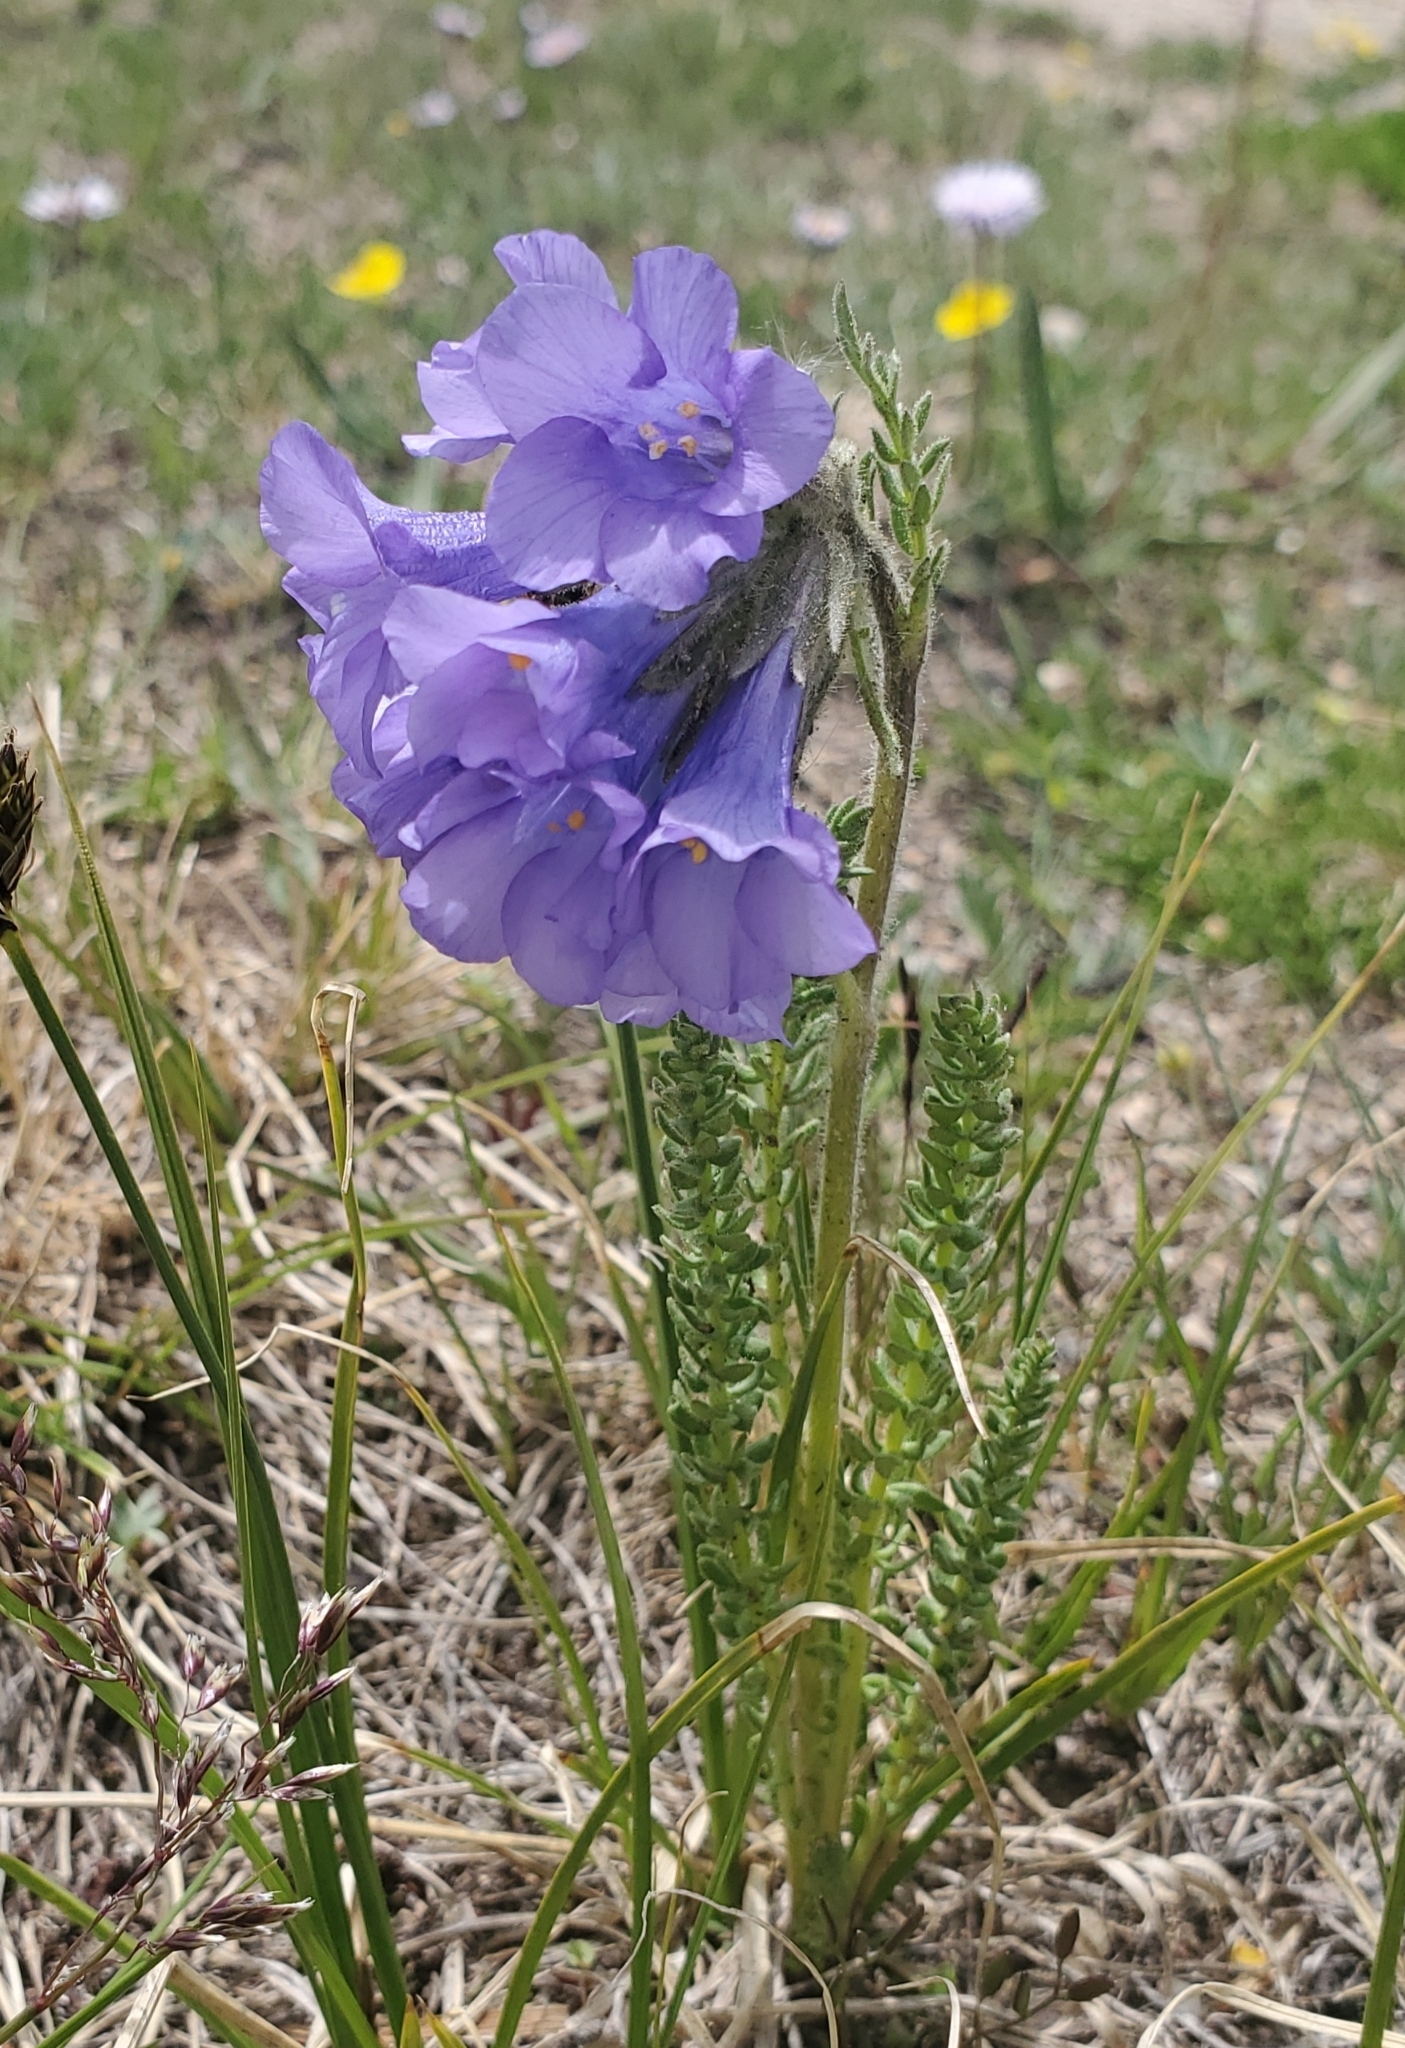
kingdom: Plantae
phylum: Tracheophyta
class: Magnoliopsida
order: Ericales
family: Polemoniaceae
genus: Polemonium
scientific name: Polemonium viscosum
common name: Skunk jacob's-ladder
